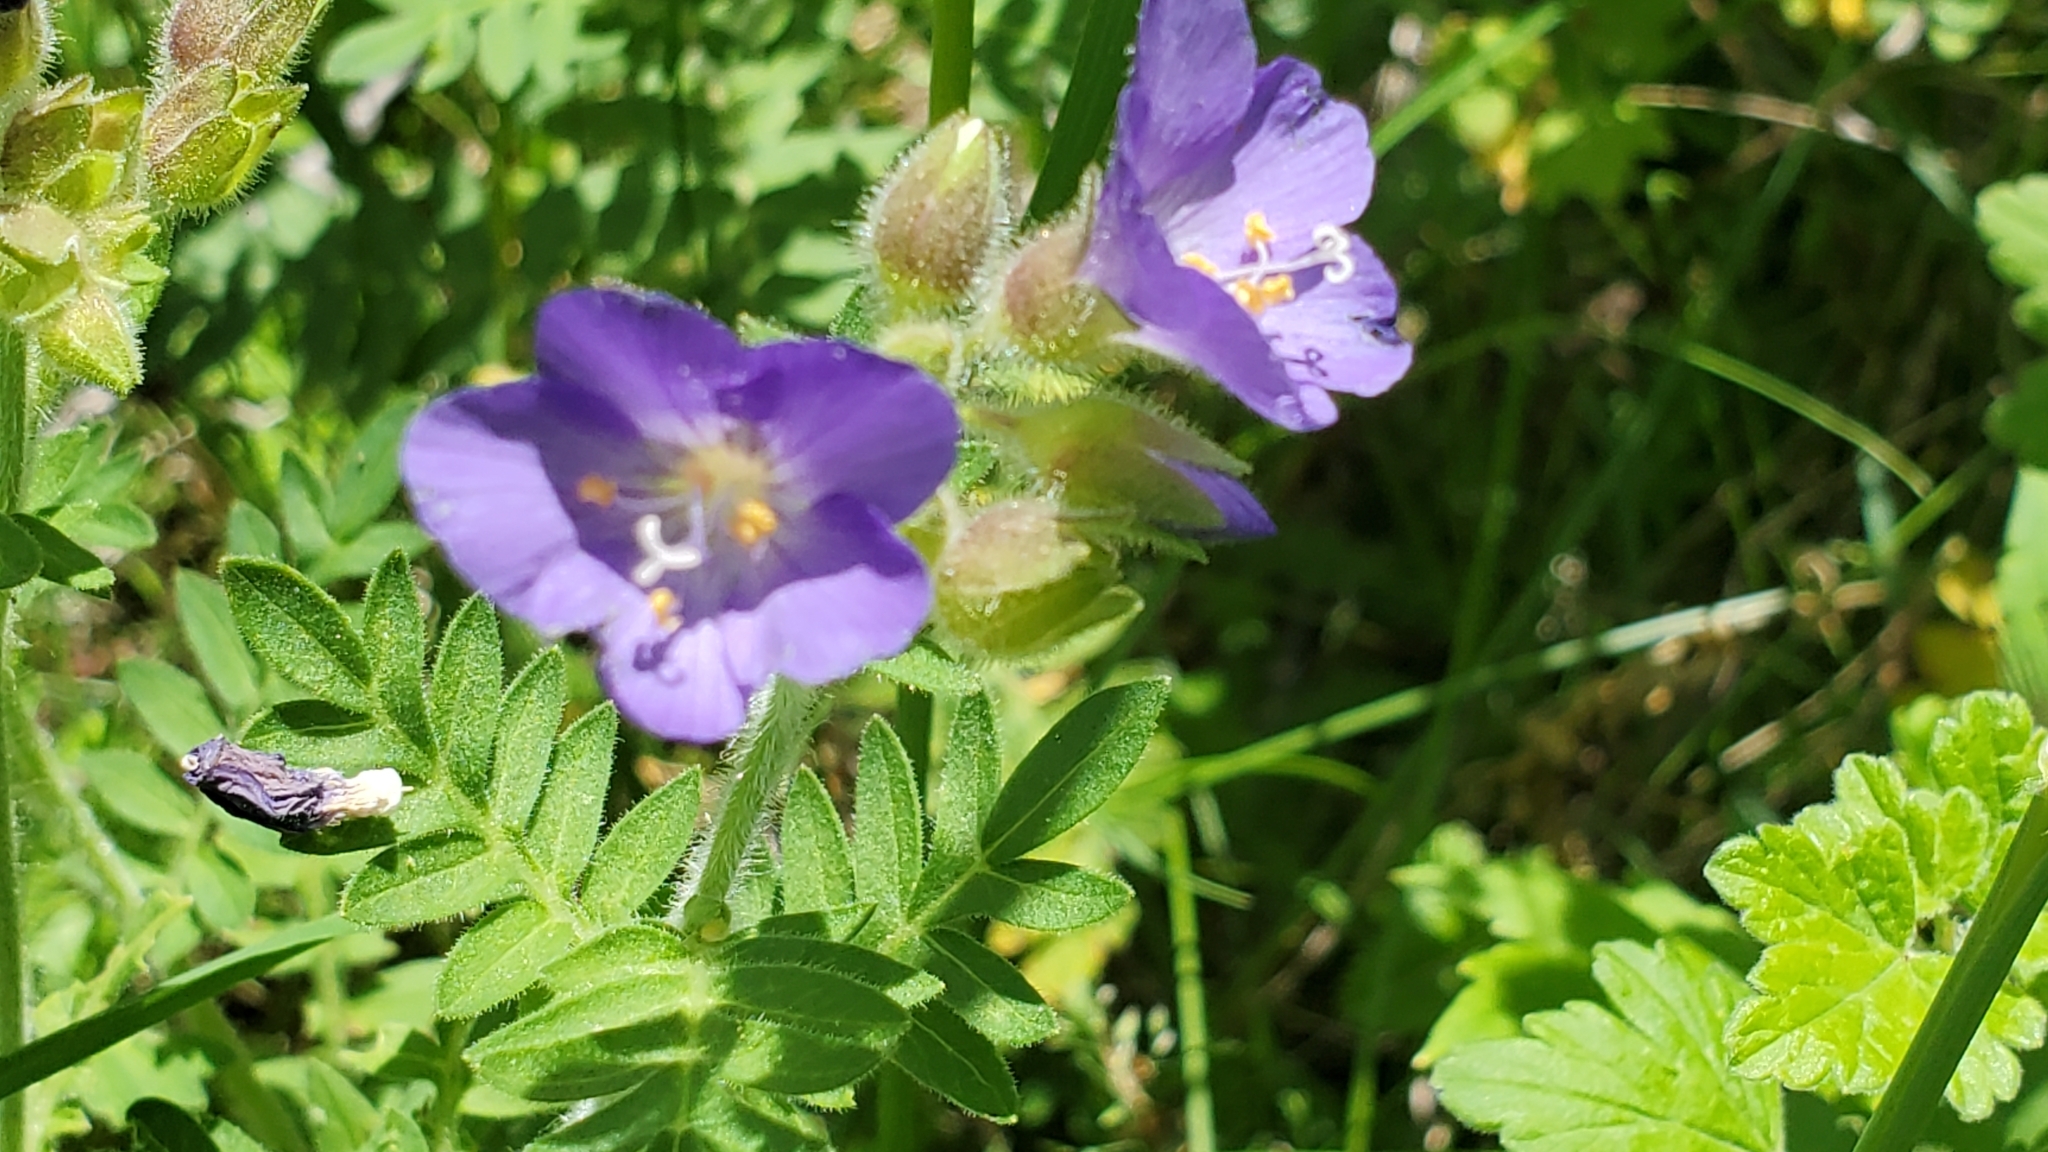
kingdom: Plantae
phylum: Tracheophyta
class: Magnoliopsida
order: Ericales
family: Polemoniaceae
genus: Polemonium
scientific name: Polemonium foliosissimum
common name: Leafy jacob's-ladder
